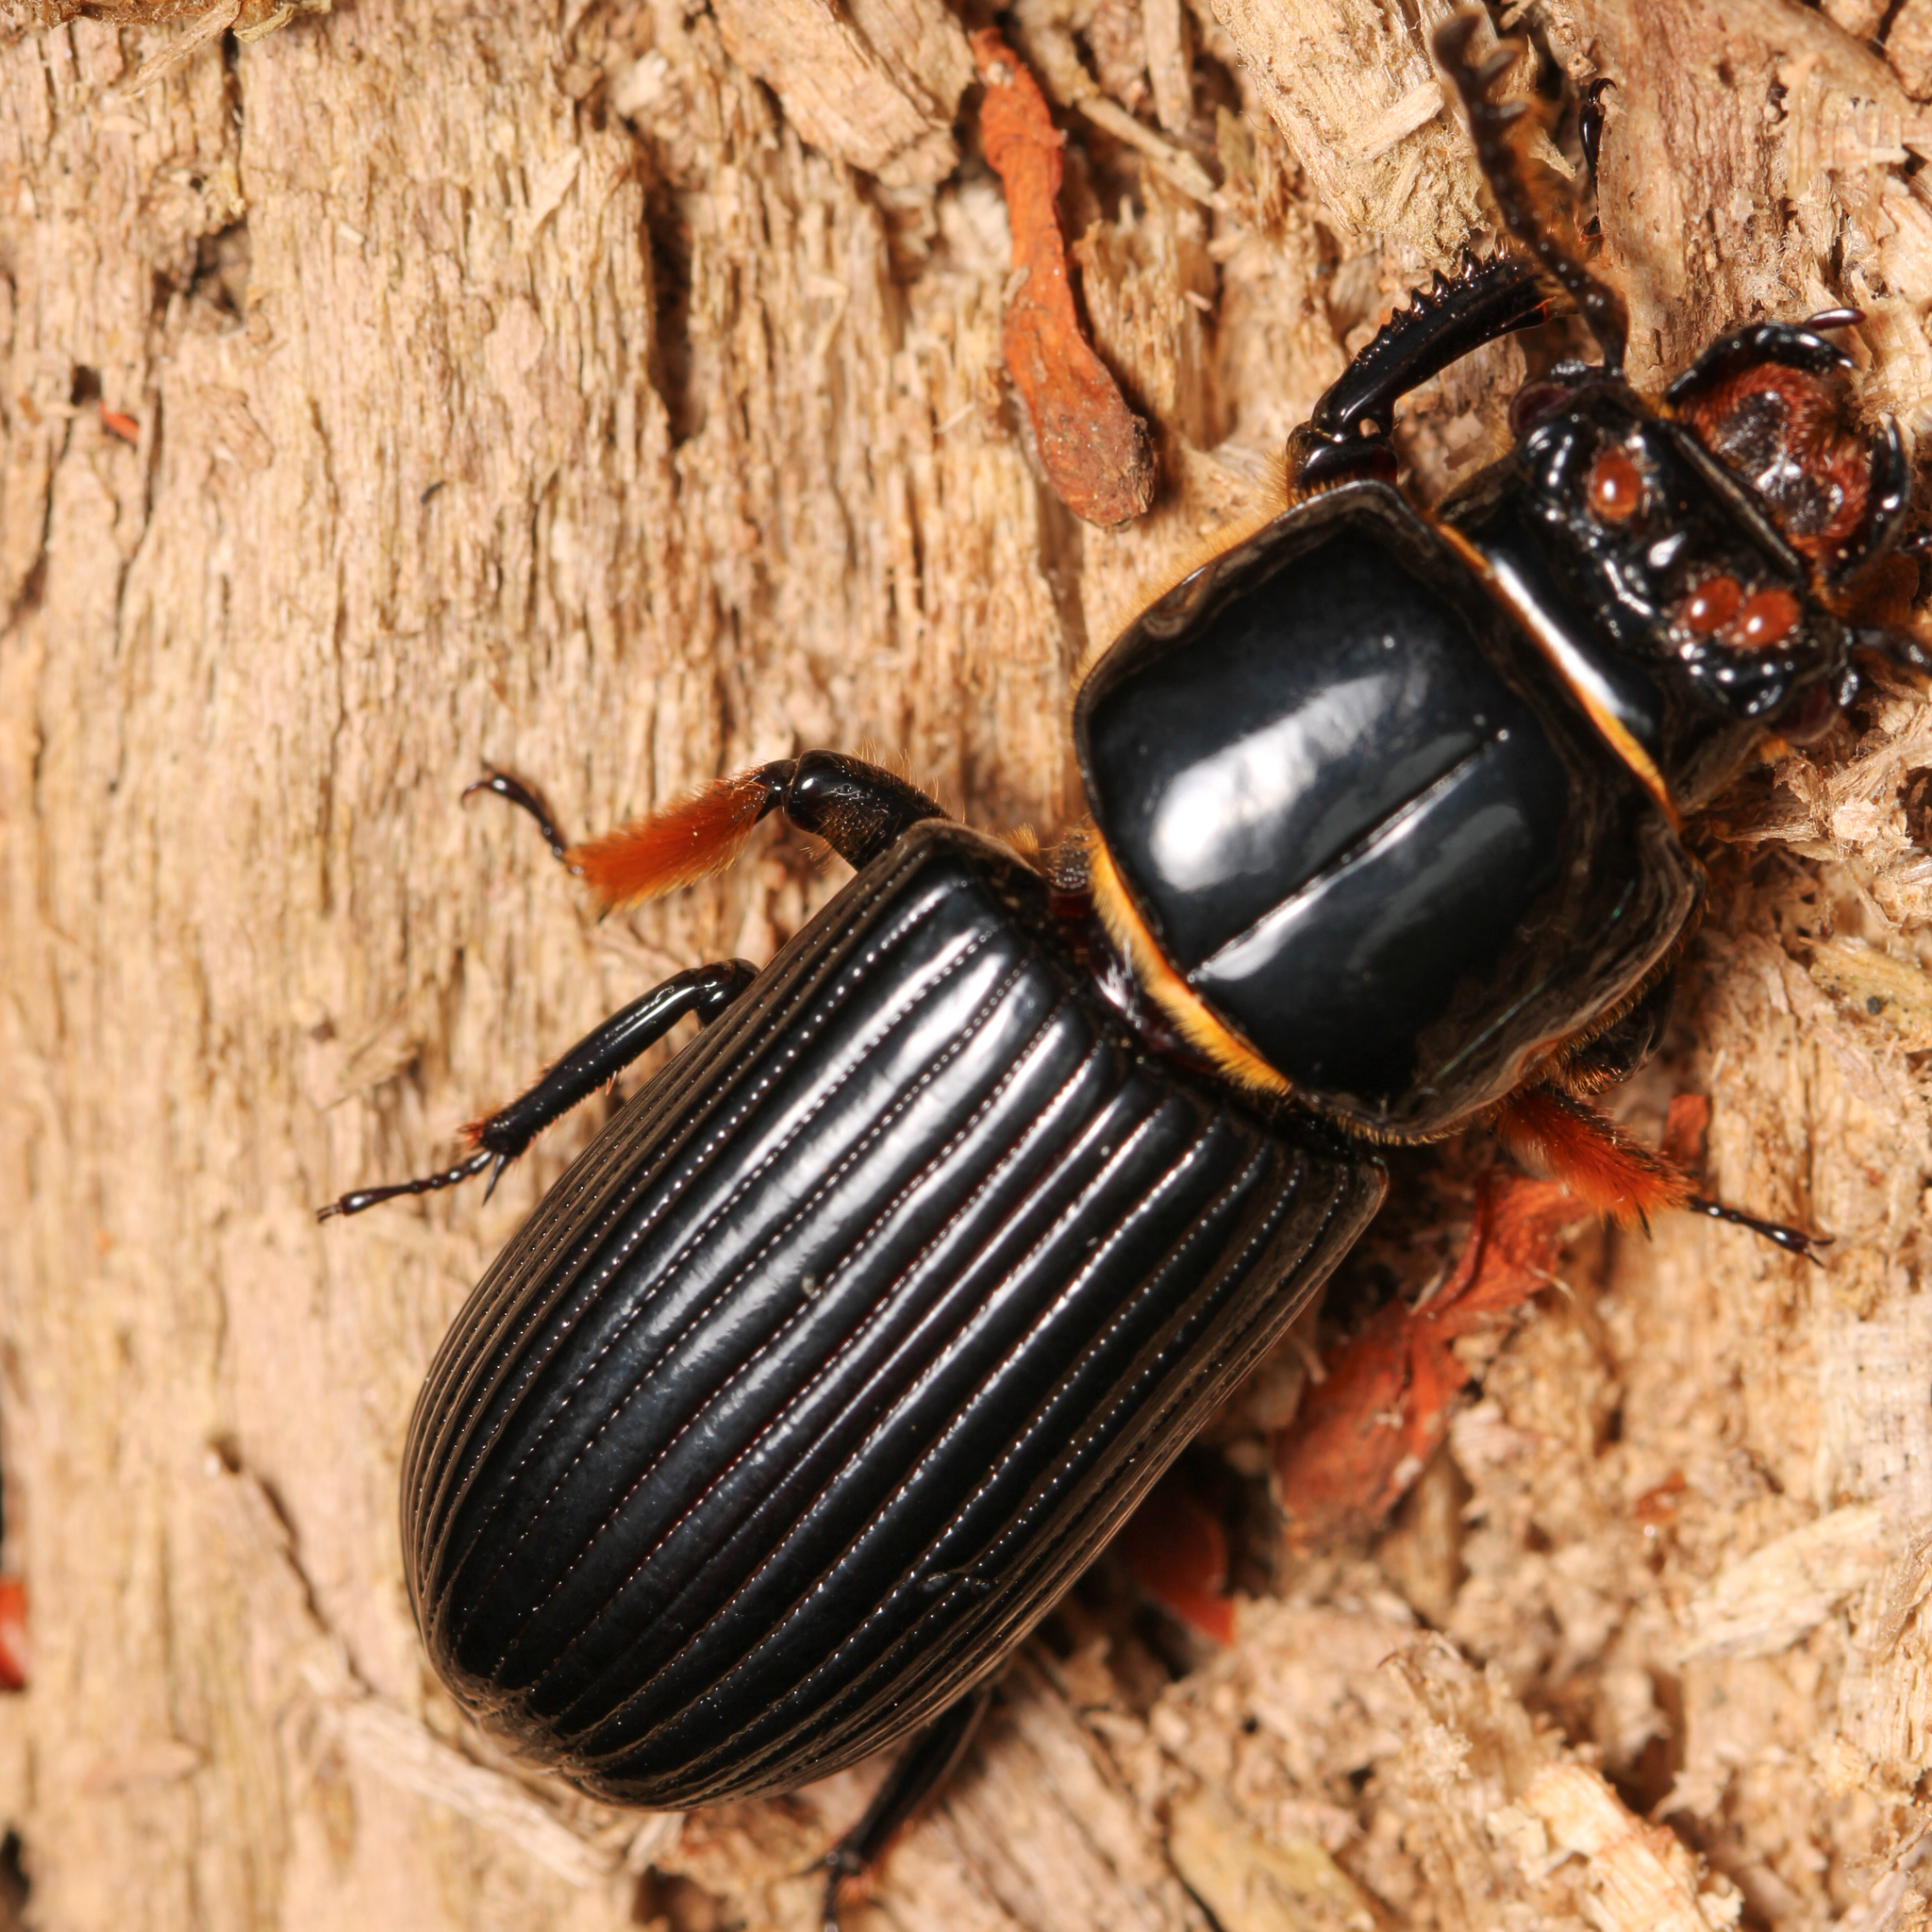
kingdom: Animalia
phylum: Arthropoda
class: Insecta
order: Coleoptera
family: Passalidae
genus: Odontotaenius
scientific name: Odontotaenius disjunctus
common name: Patent leather beetle
